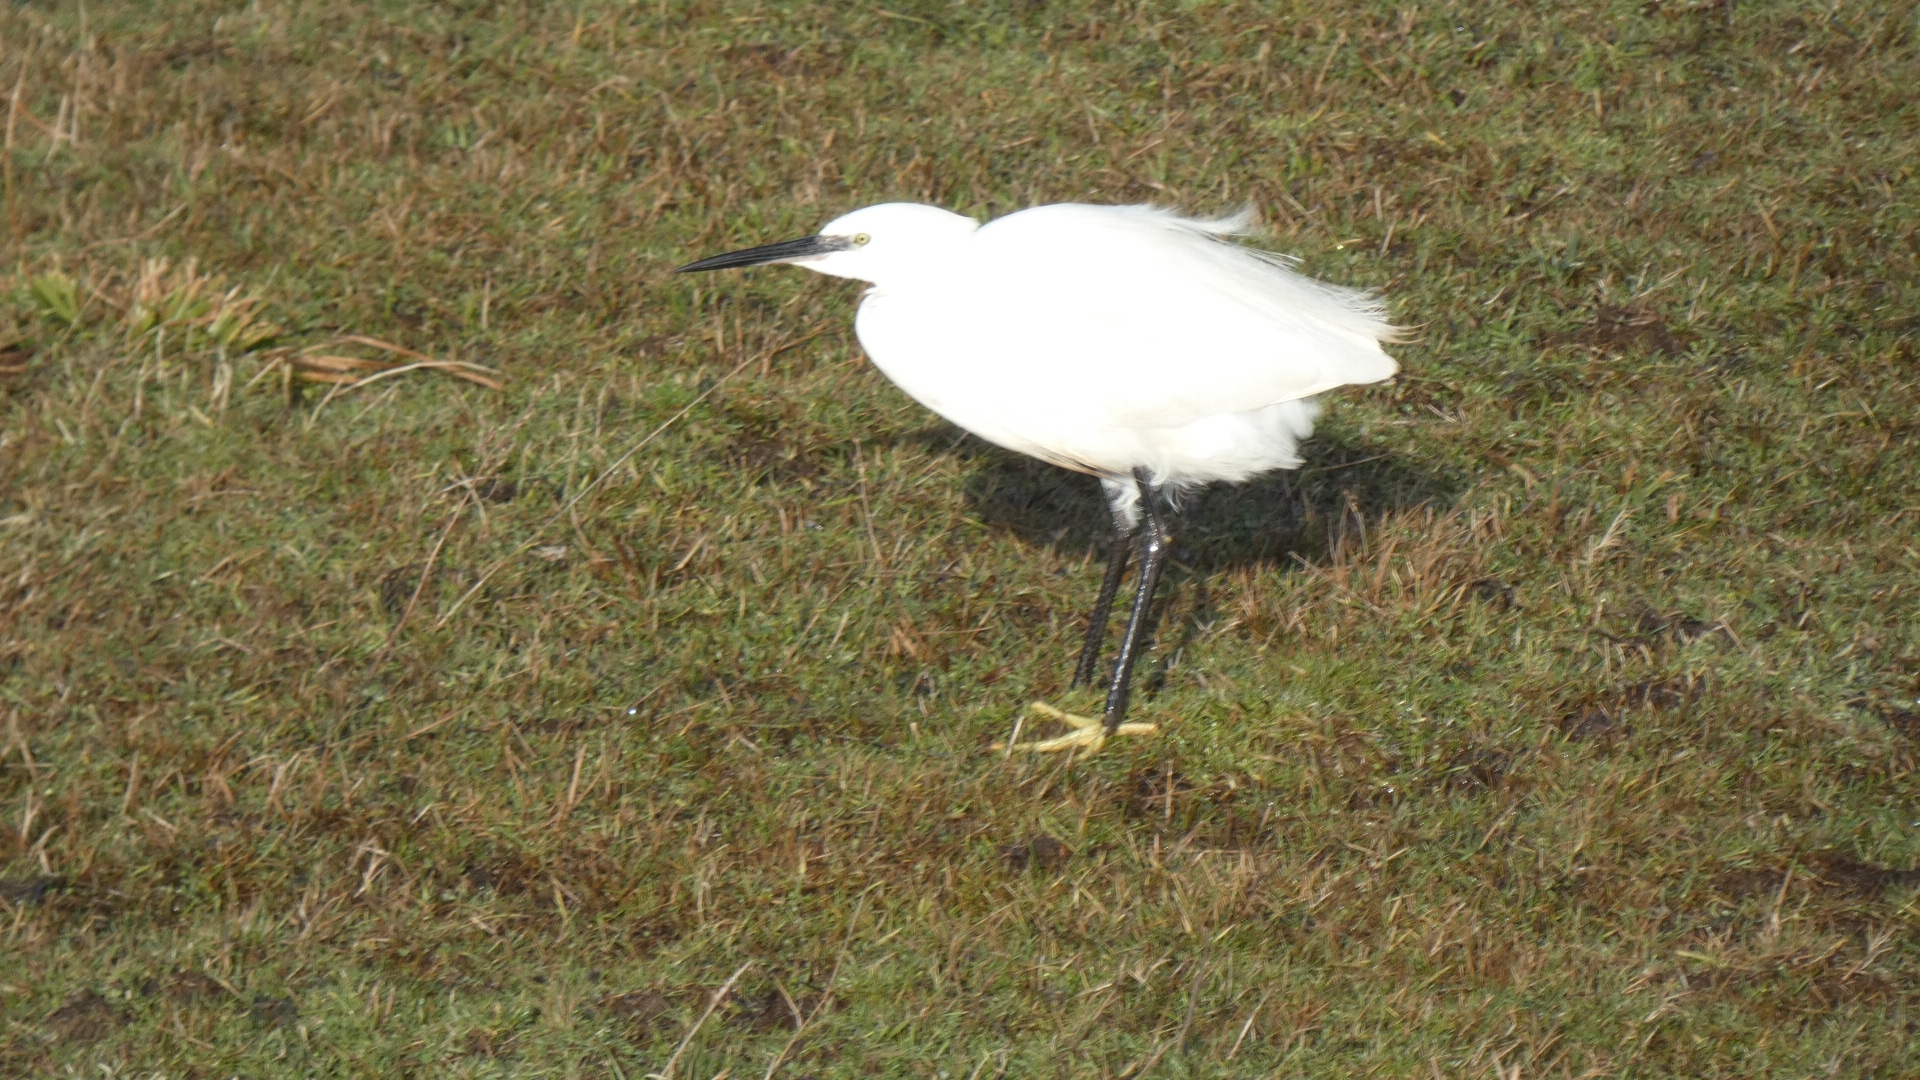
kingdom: Animalia
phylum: Chordata
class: Aves
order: Pelecaniformes
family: Ardeidae
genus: Egretta
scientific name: Egretta garzetta
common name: Little egret
